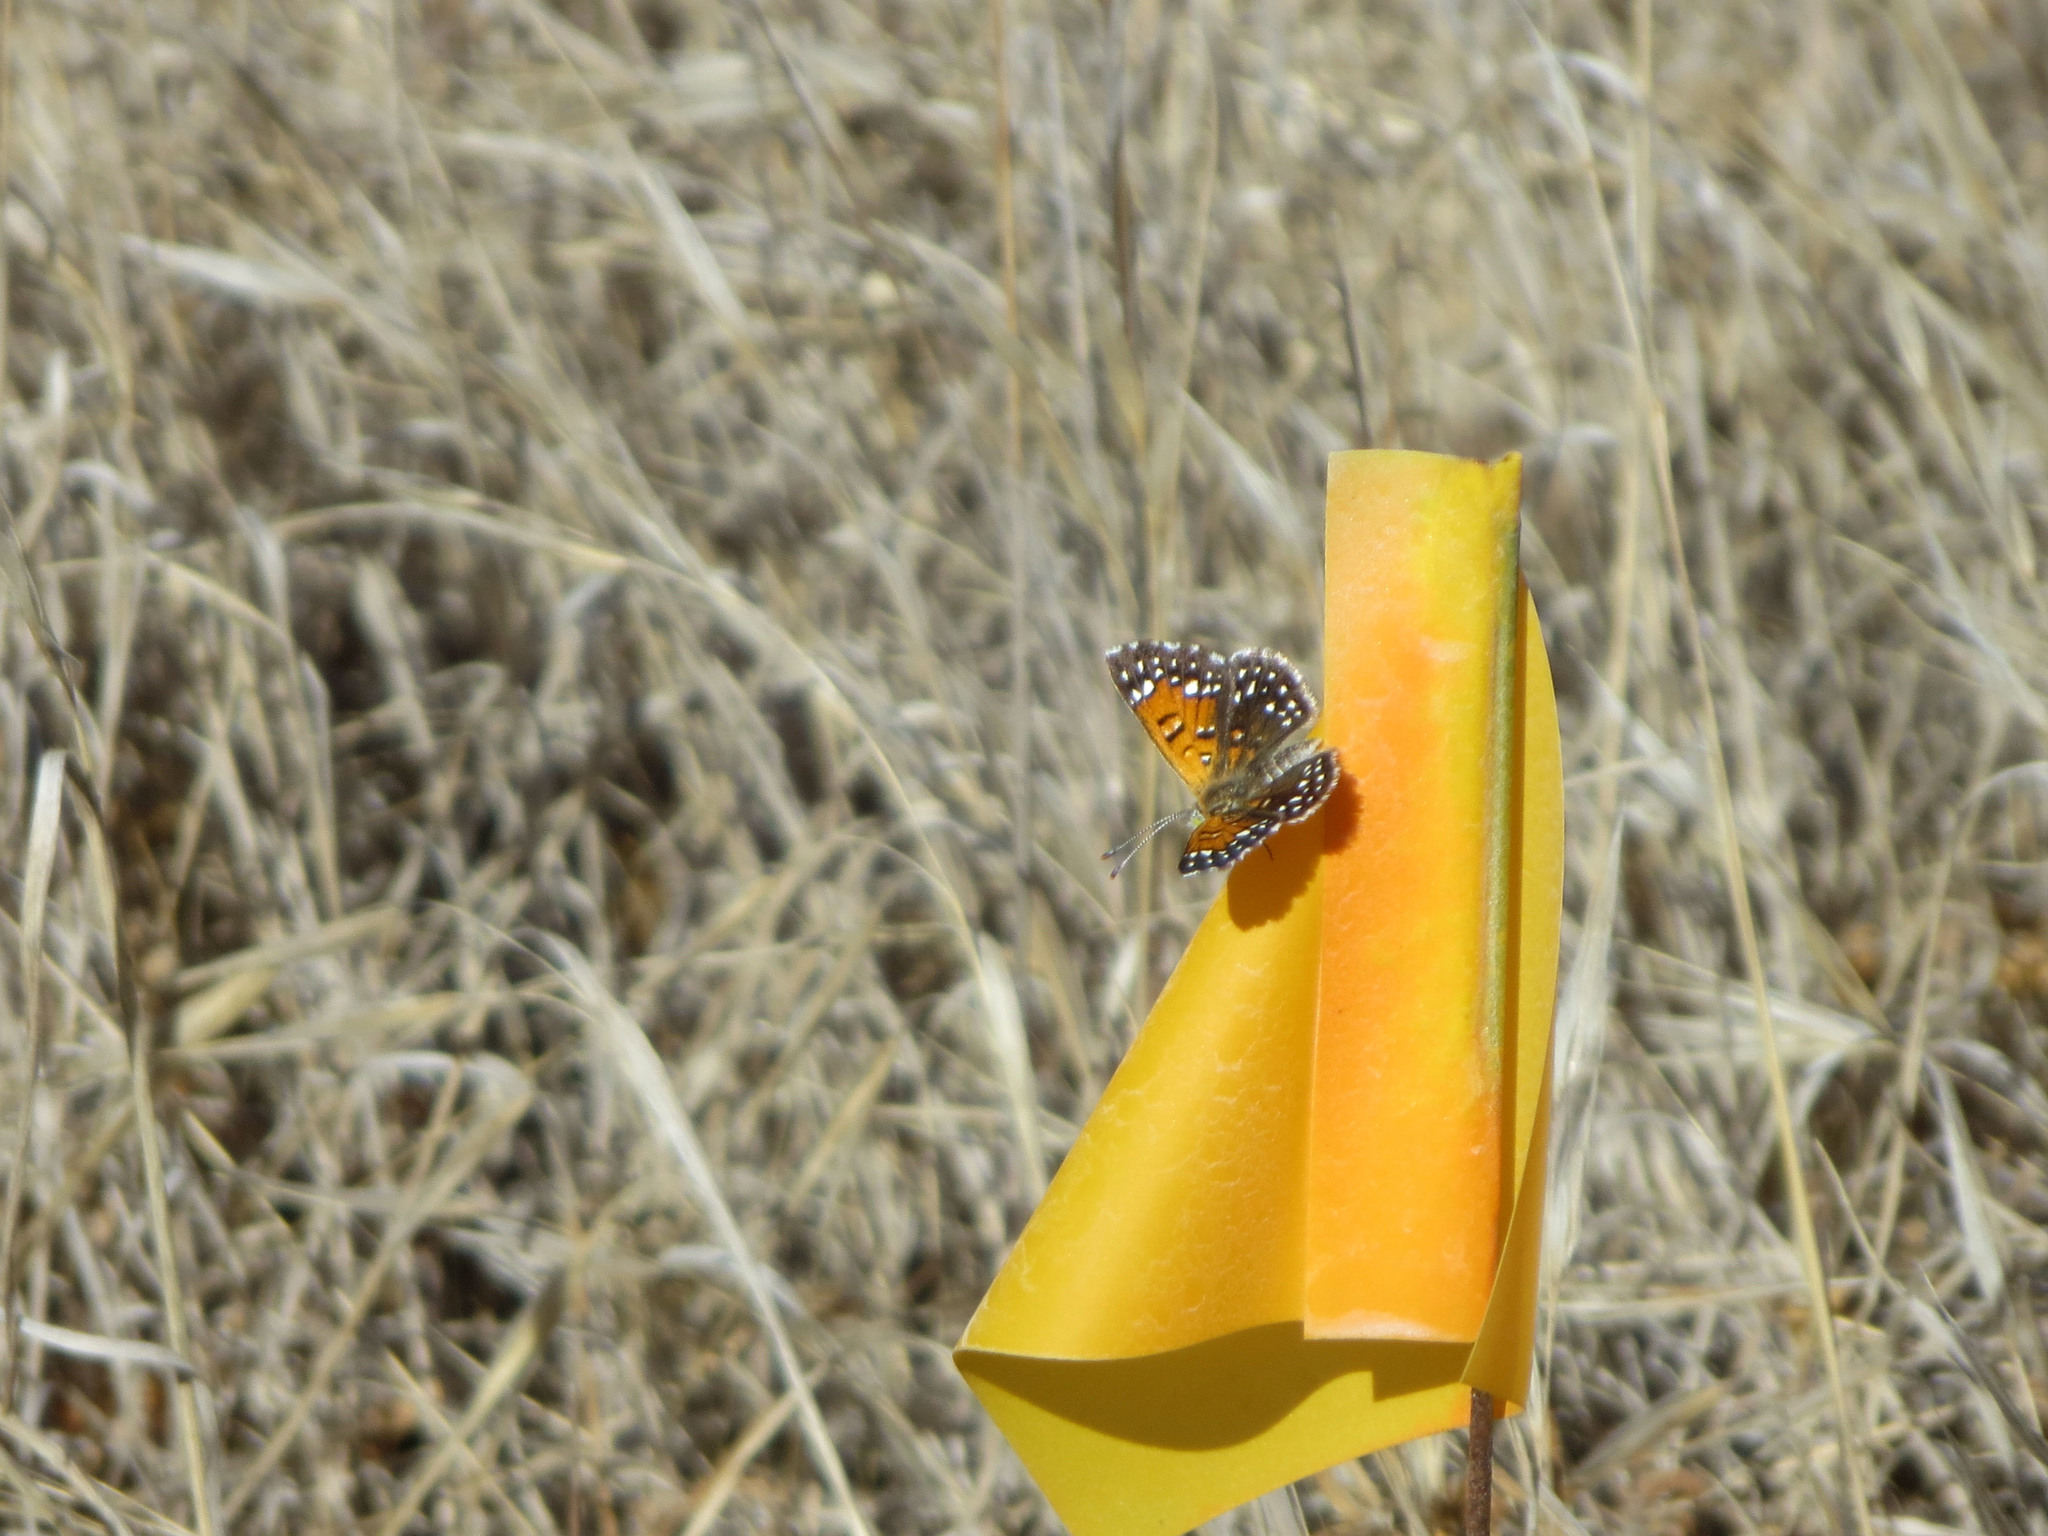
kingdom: Animalia
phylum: Arthropoda
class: Insecta
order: Lepidoptera
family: Riodinidae
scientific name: Riodinidae
